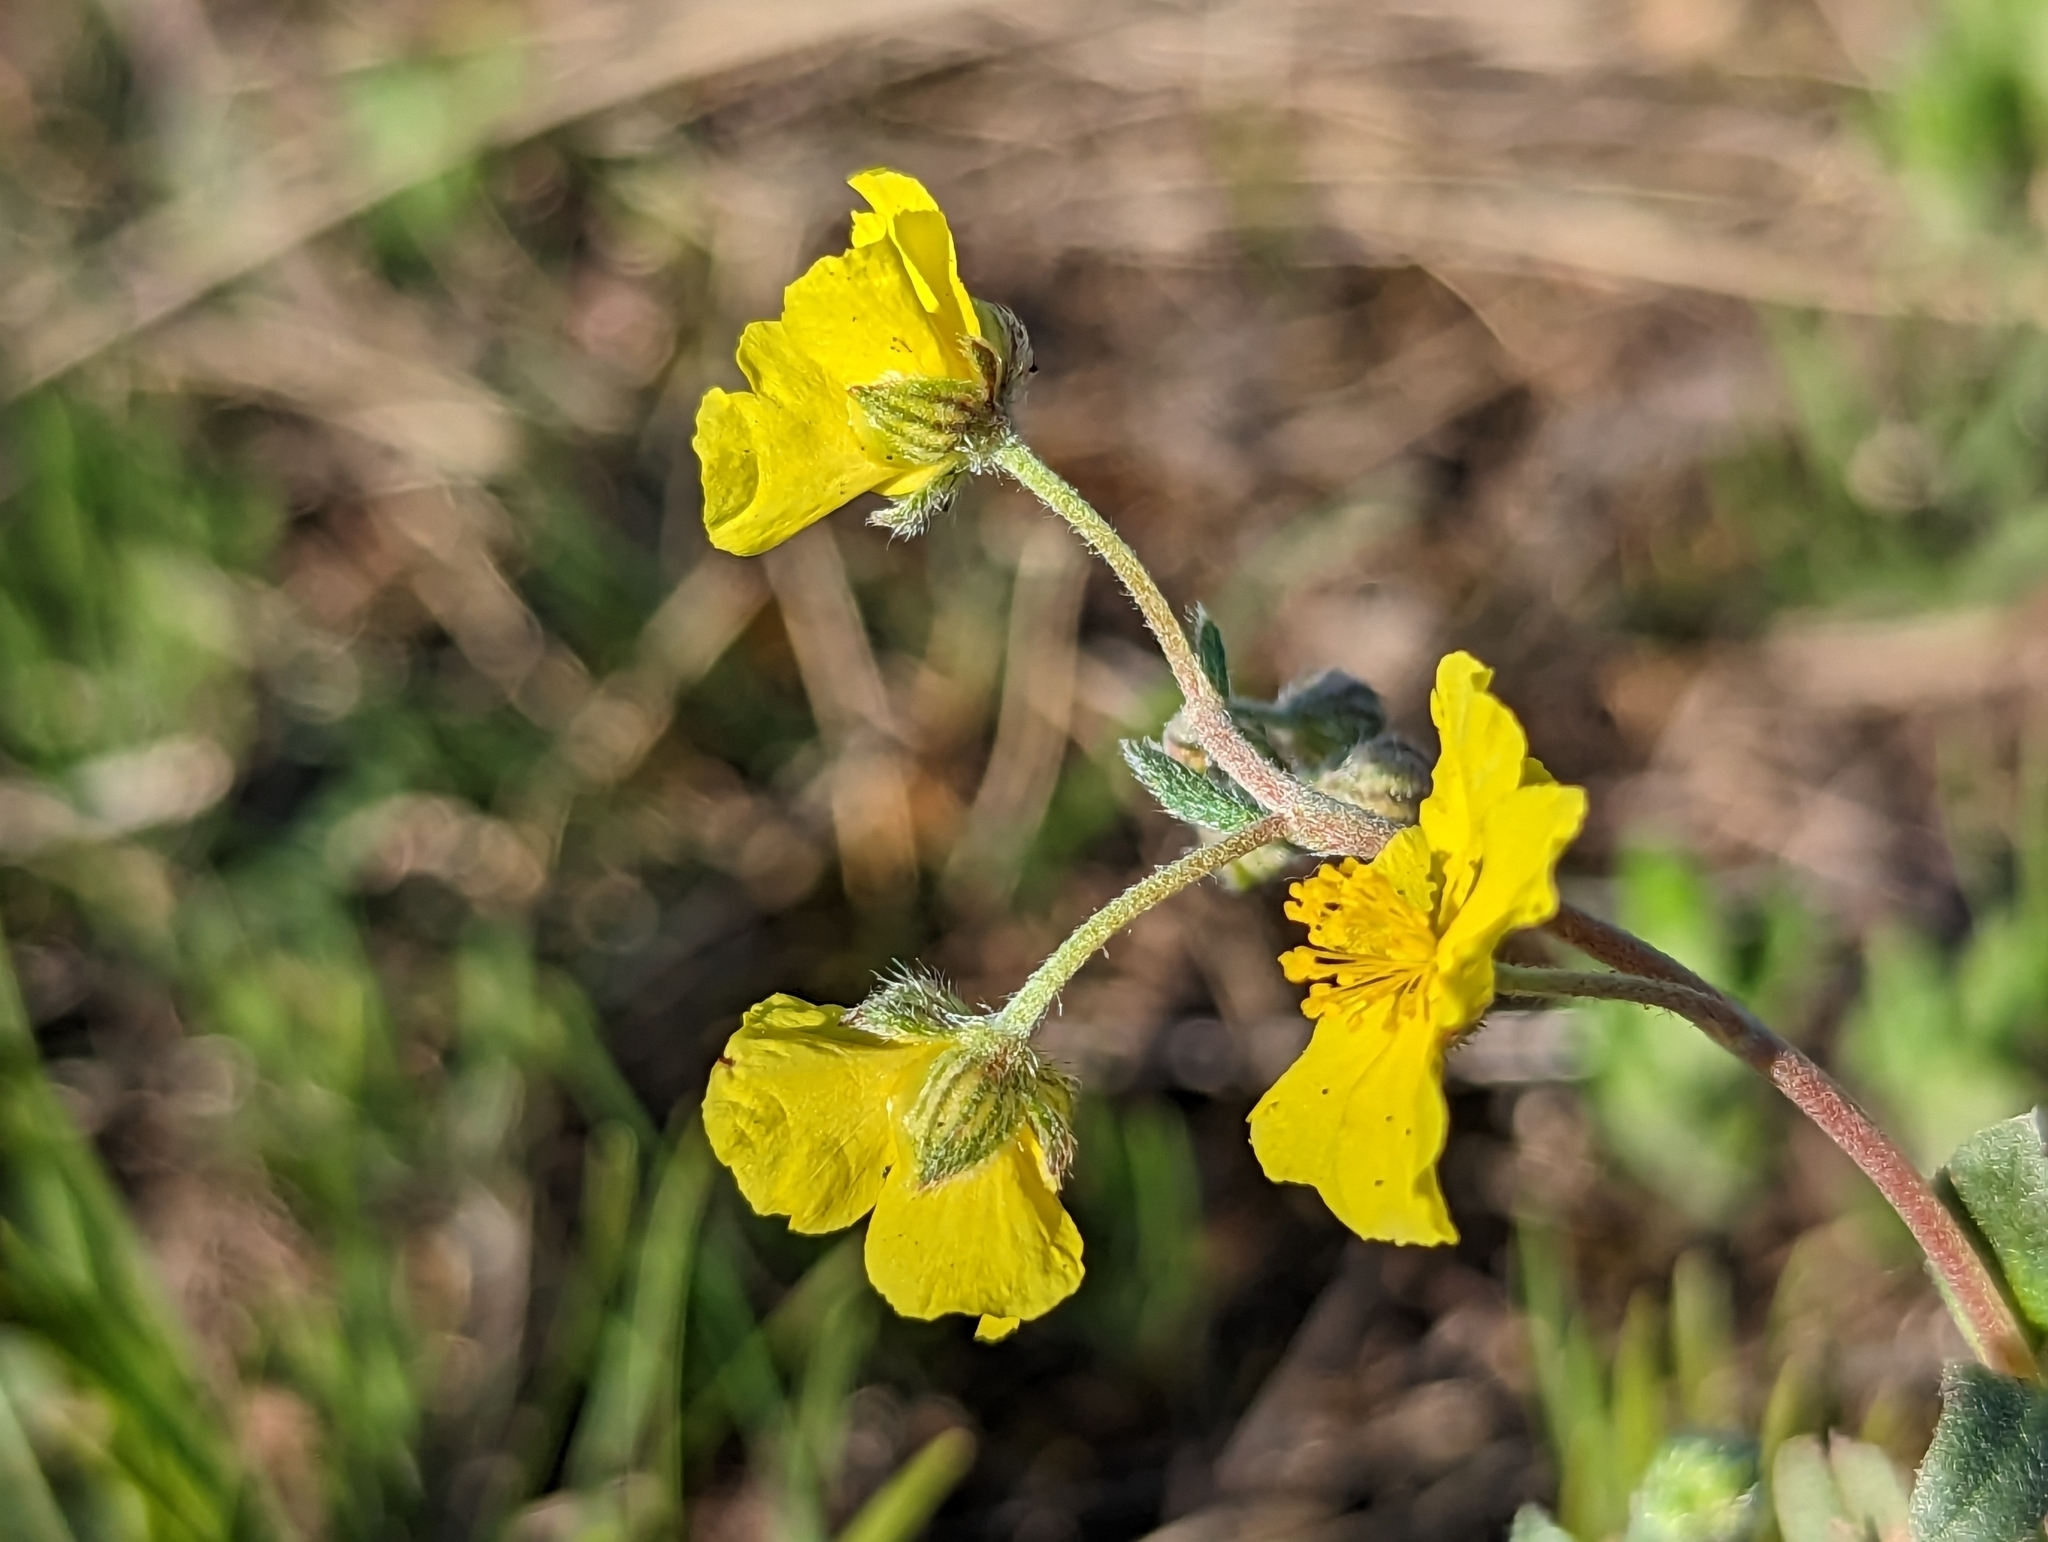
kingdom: Plantae
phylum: Tracheophyta
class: Magnoliopsida
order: Malvales
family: Cistaceae
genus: Helianthemum
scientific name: Helianthemum canum
